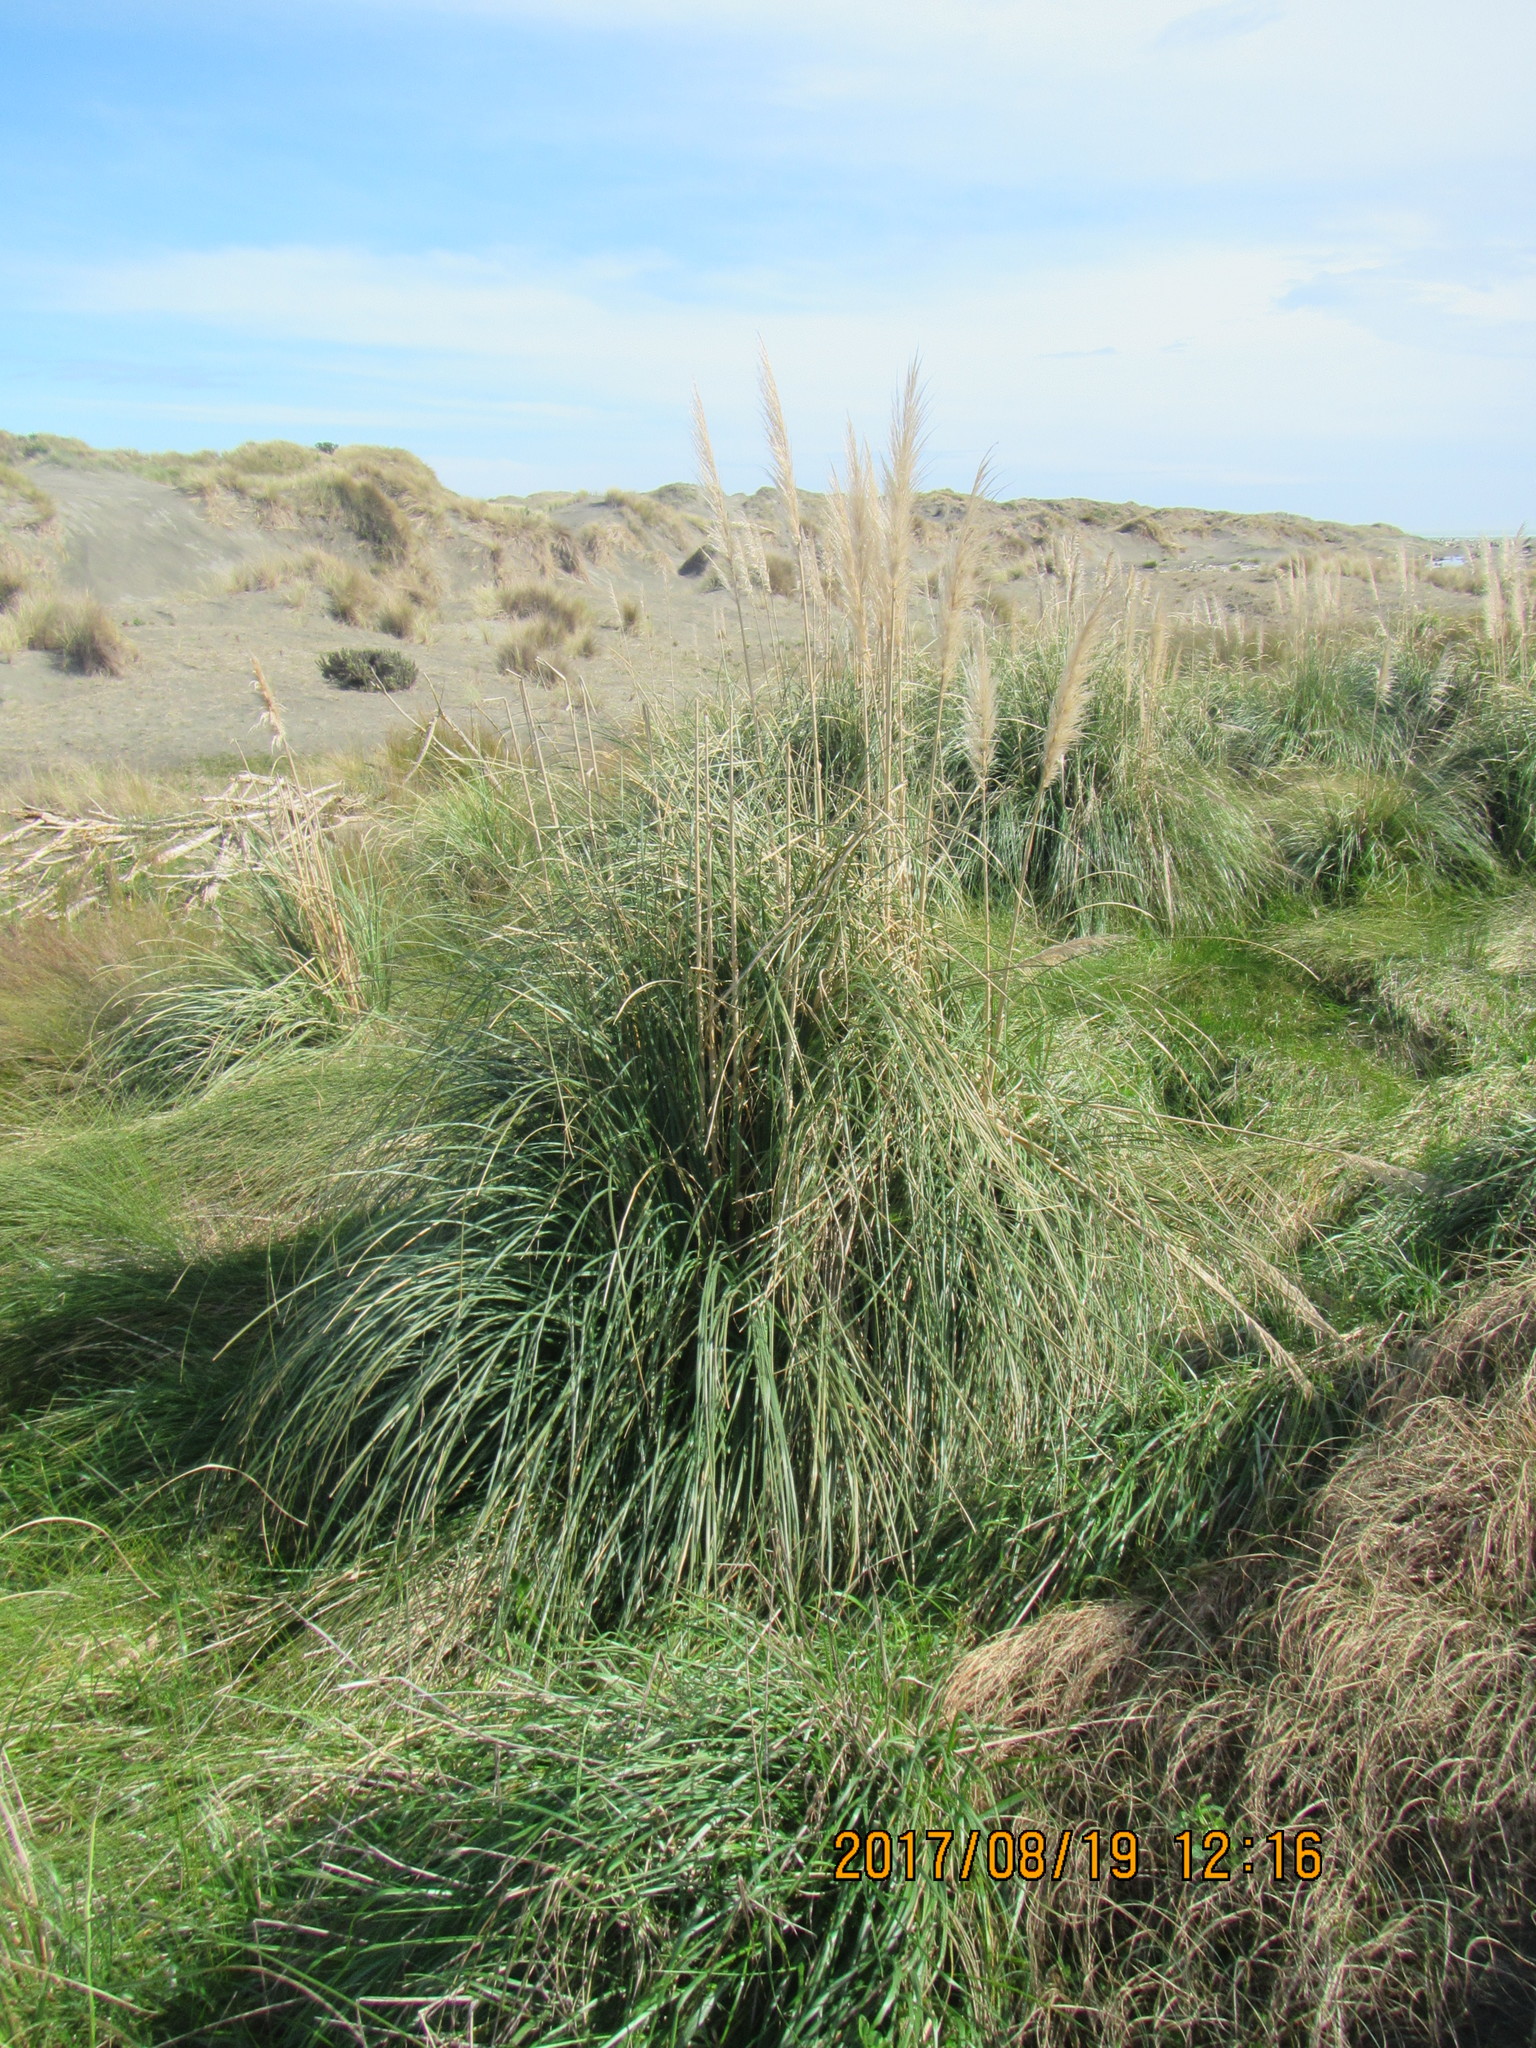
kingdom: Plantae
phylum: Tracheophyta
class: Liliopsida
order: Poales
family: Poaceae
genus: Cortaderia
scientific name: Cortaderia selloana
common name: Uruguayan pampas grass
